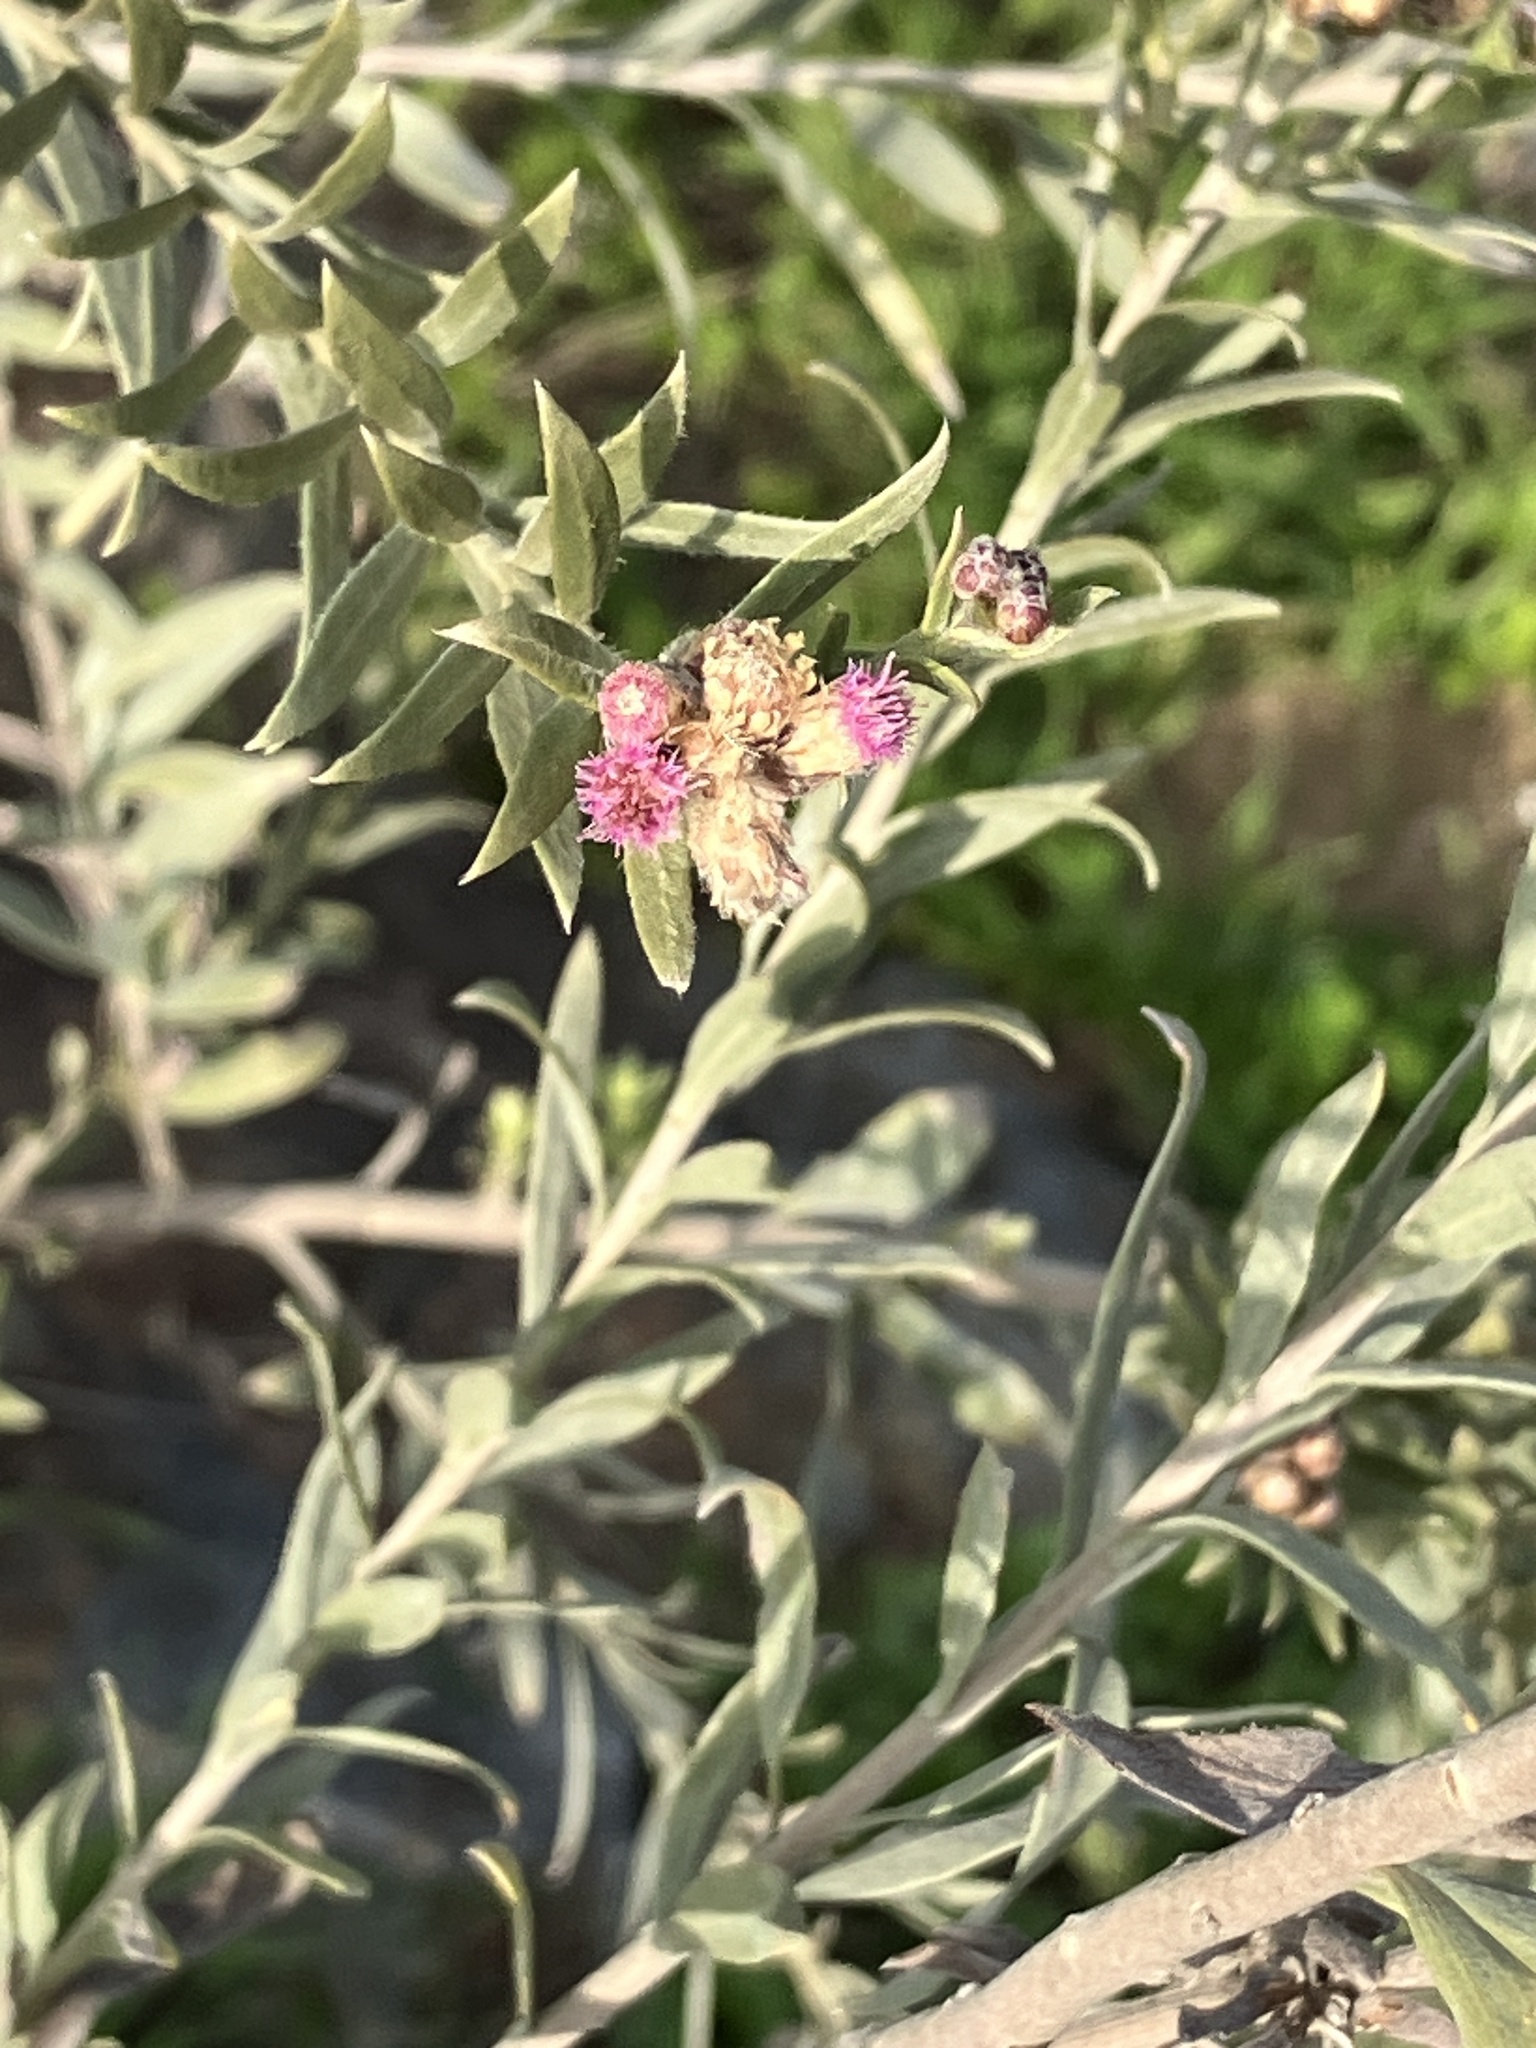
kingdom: Plantae
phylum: Tracheophyta
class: Magnoliopsida
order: Asterales
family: Asteraceae
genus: Pluchea
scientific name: Pluchea sericea
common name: Arrow-weed
